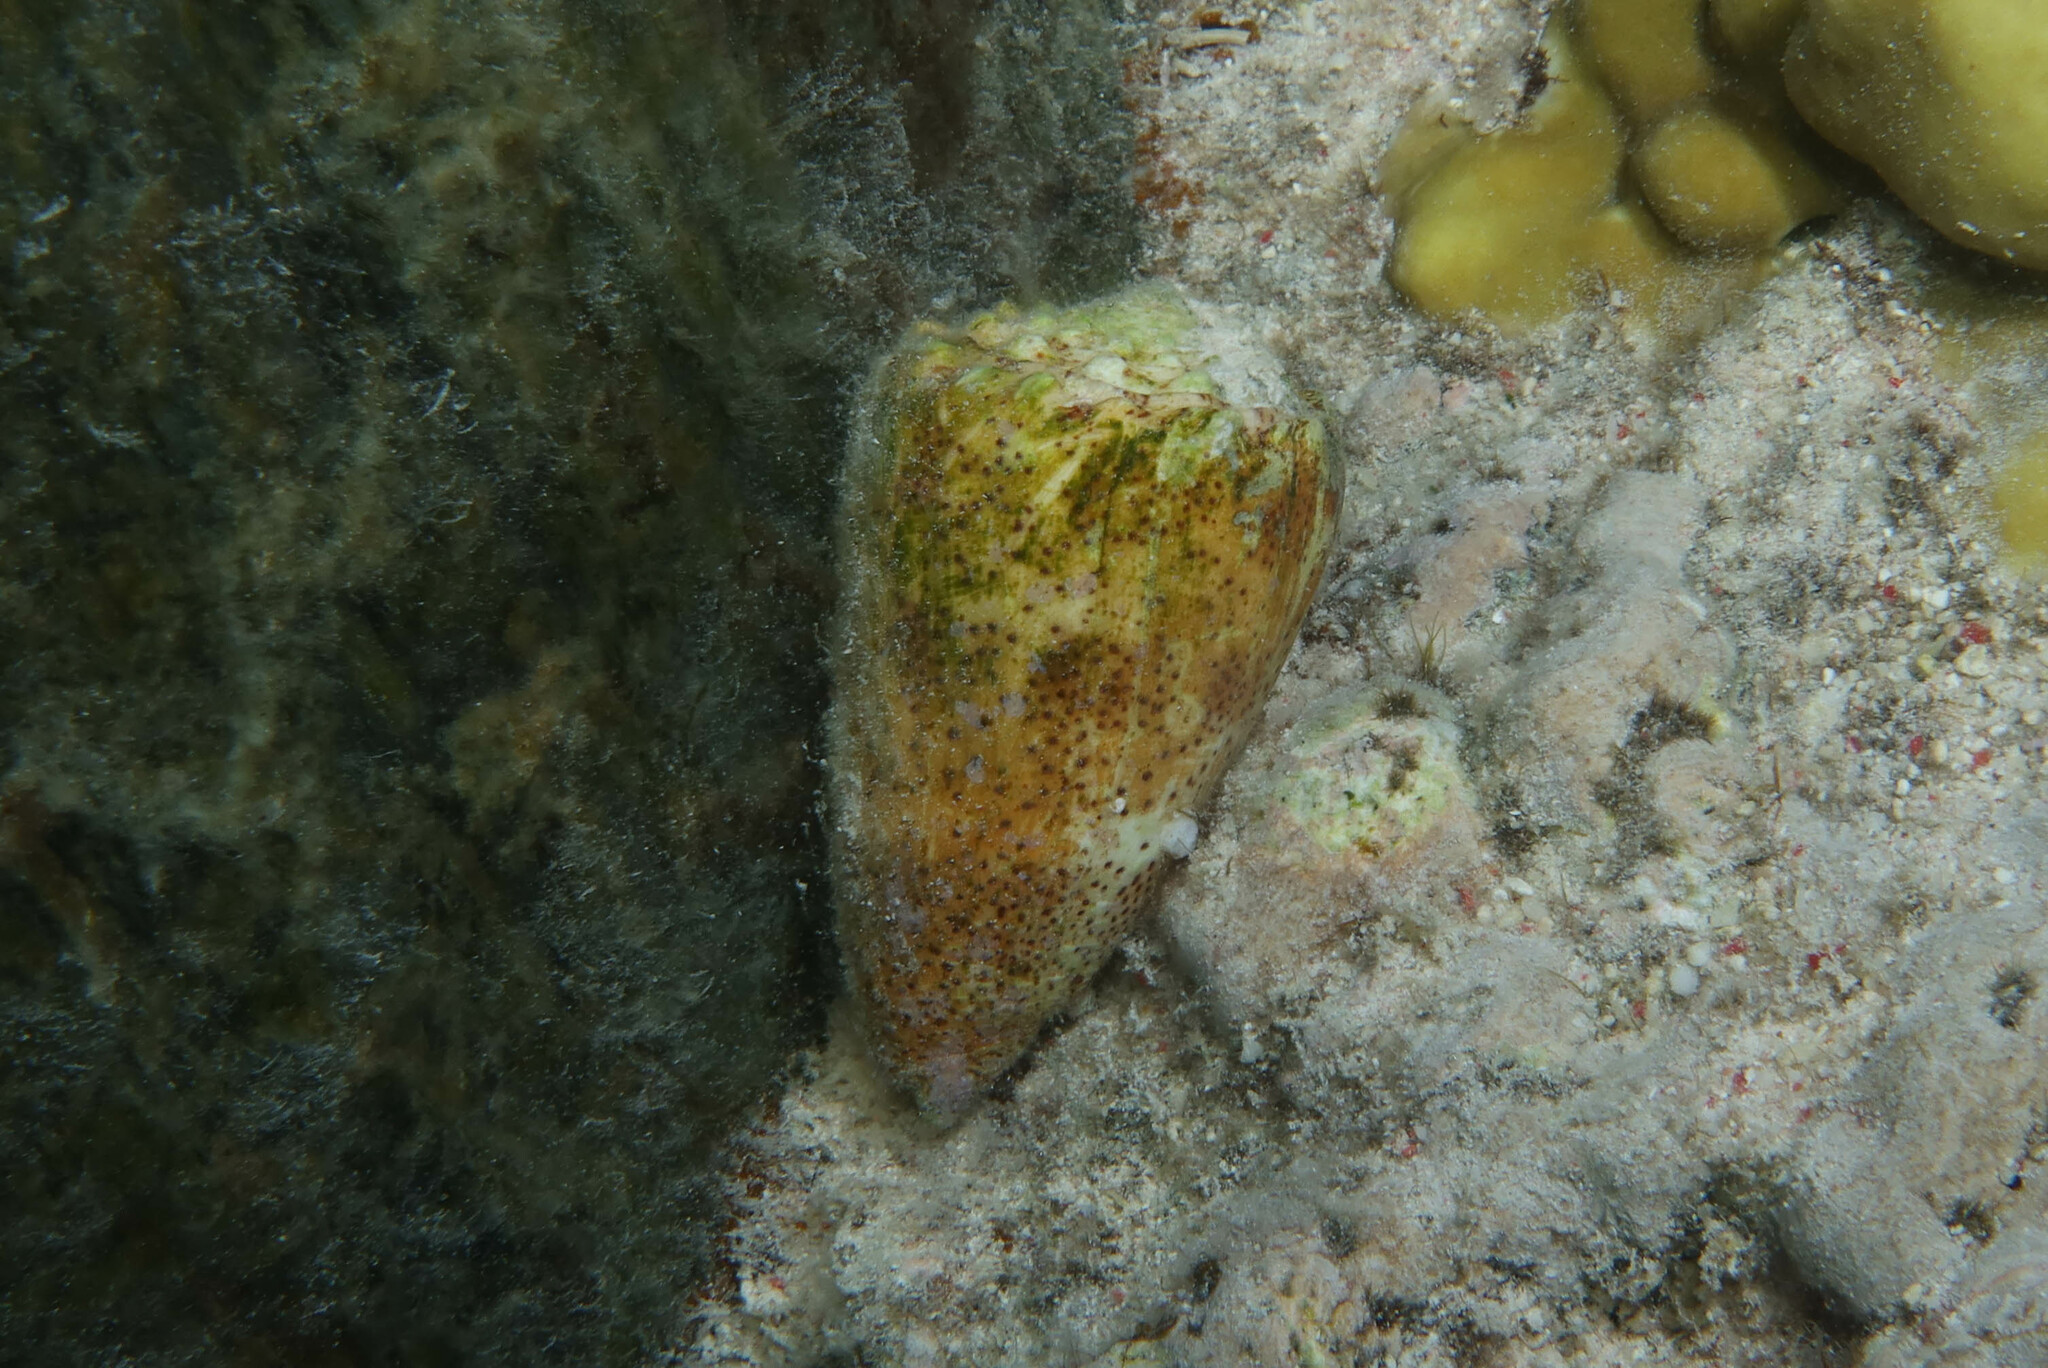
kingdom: Animalia
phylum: Mollusca
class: Gastropoda
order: Neogastropoda
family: Conidae
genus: Conus
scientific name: Conus arenatus
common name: Sand-dusted cone
